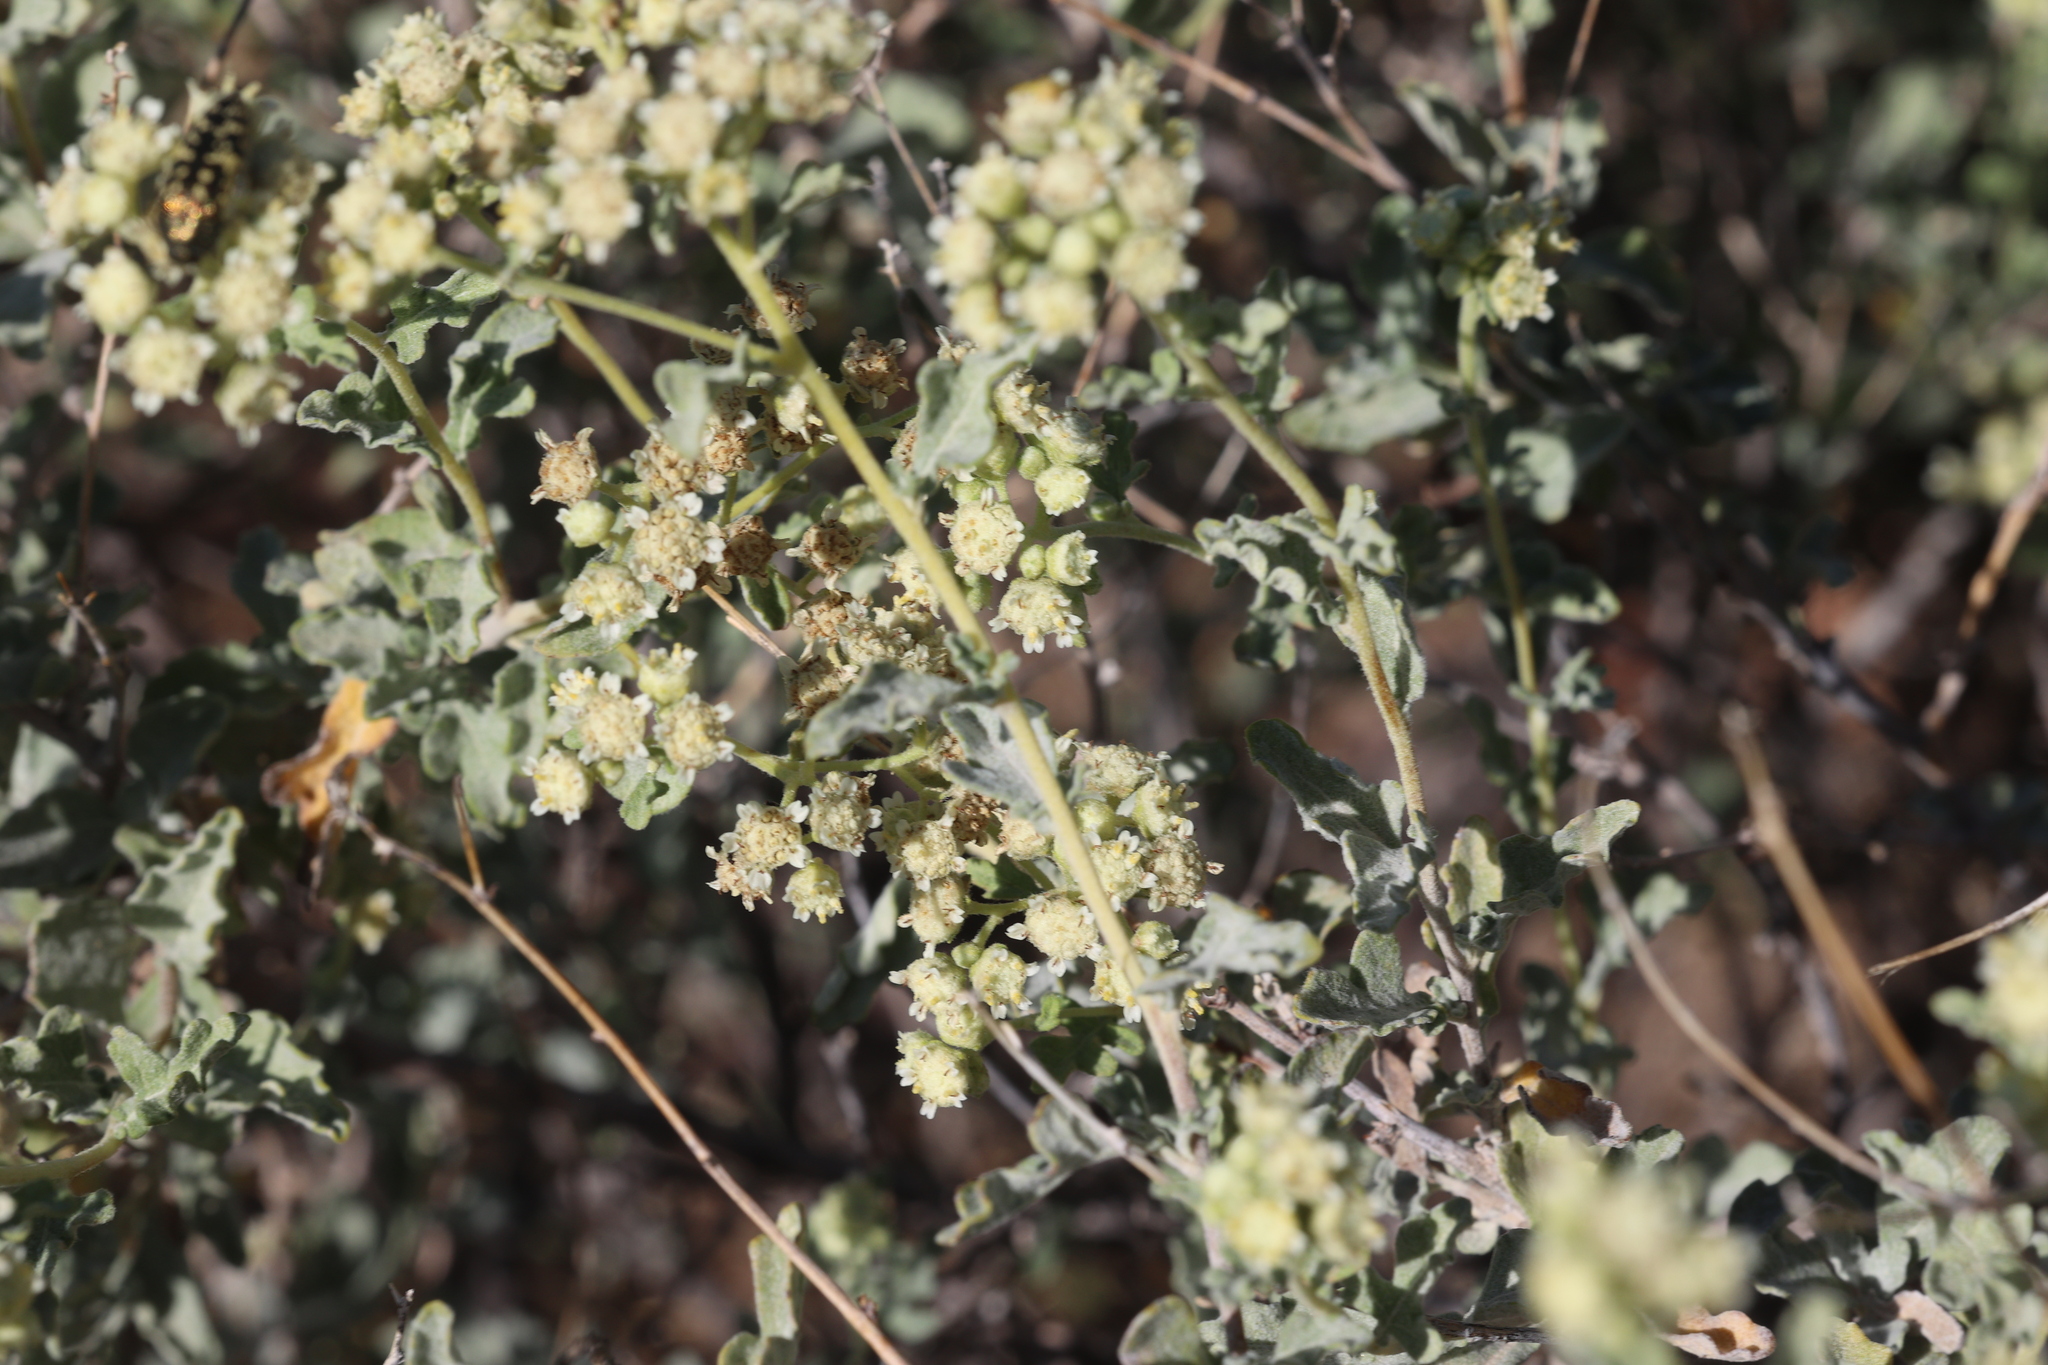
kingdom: Plantae
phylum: Tracheophyta
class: Magnoliopsida
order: Asterales
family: Asteraceae
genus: Parthenium
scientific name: Parthenium incanum
